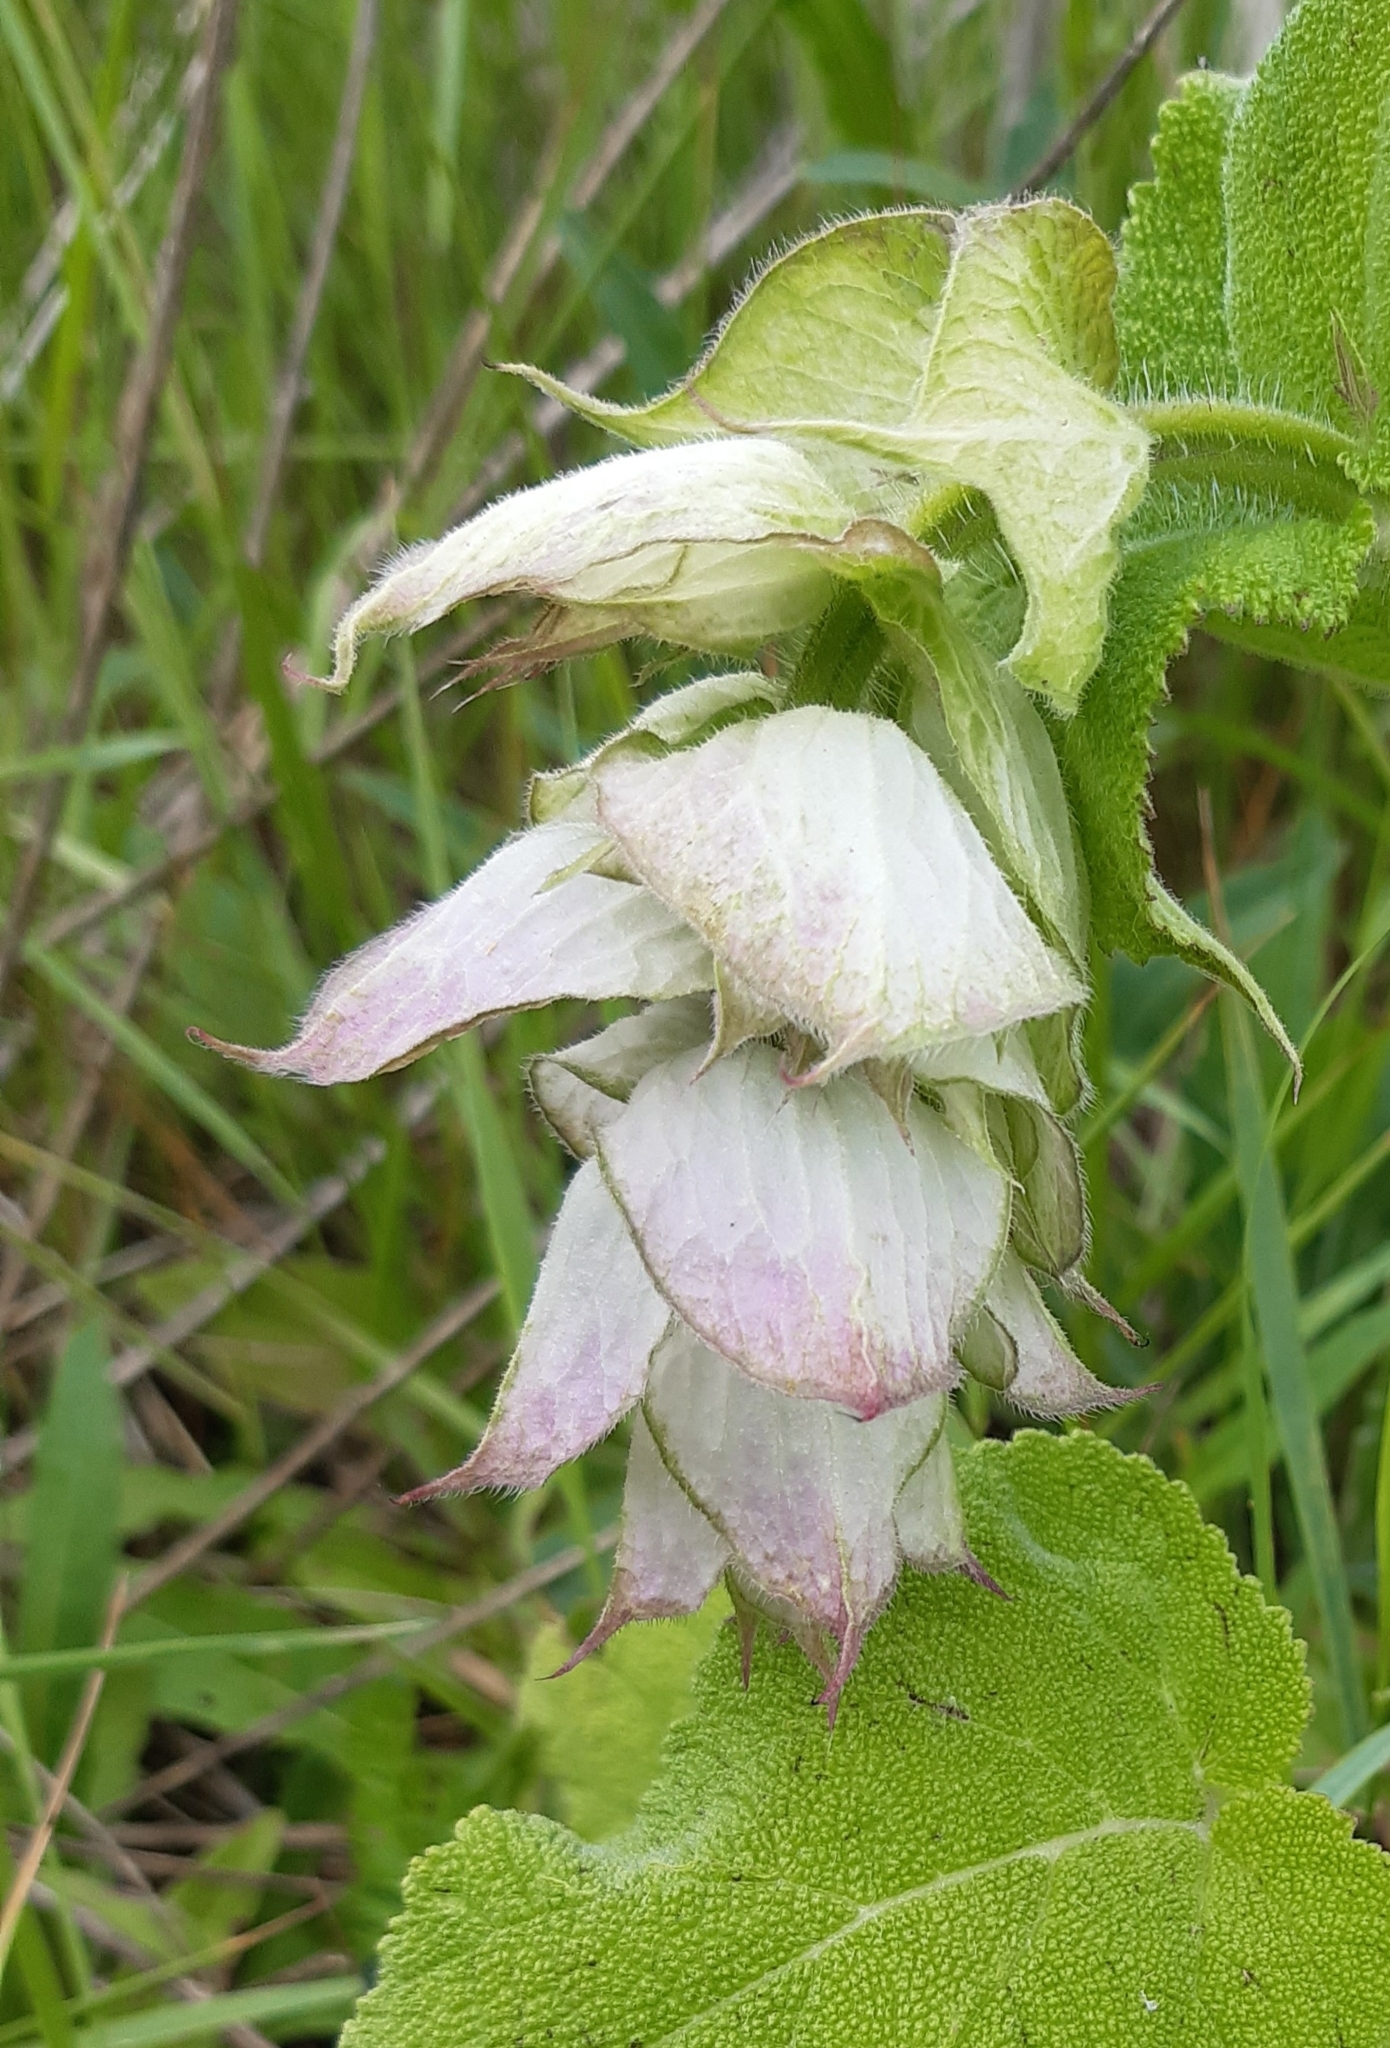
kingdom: Plantae
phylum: Tracheophyta
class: Magnoliopsida
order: Lamiales
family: Lamiaceae
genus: Salvia
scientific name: Salvia sclarea
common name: Clary
